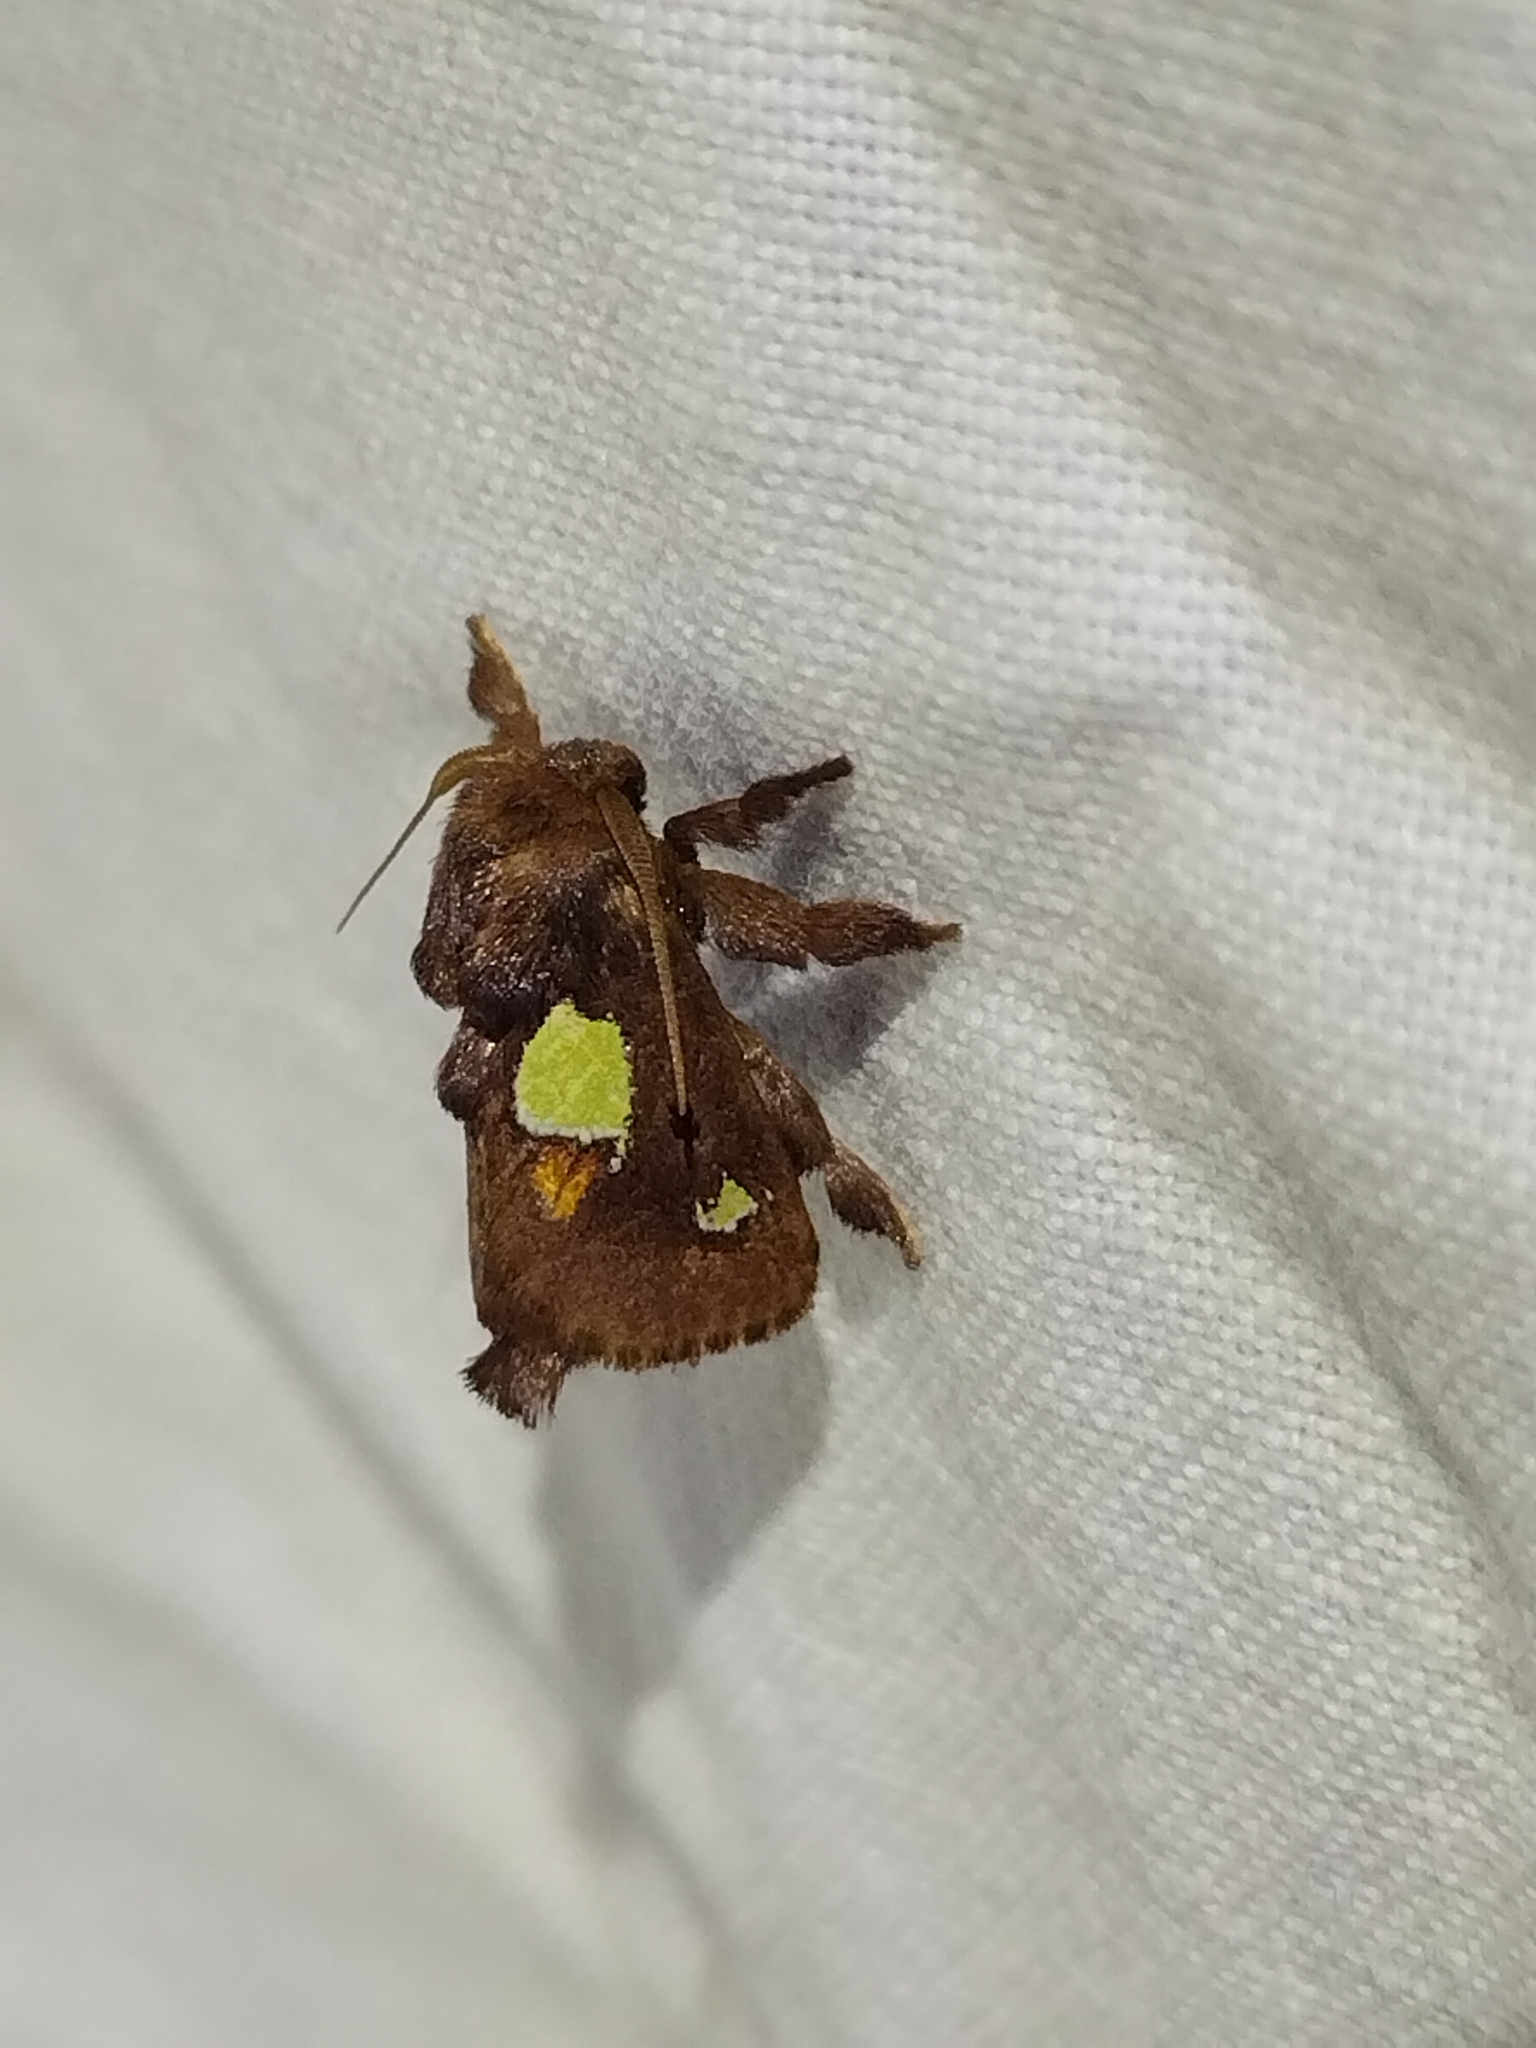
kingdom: Animalia
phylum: Arthropoda
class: Insecta
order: Lepidoptera
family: Limacodidae
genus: Euclea
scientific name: Euclea nanina
